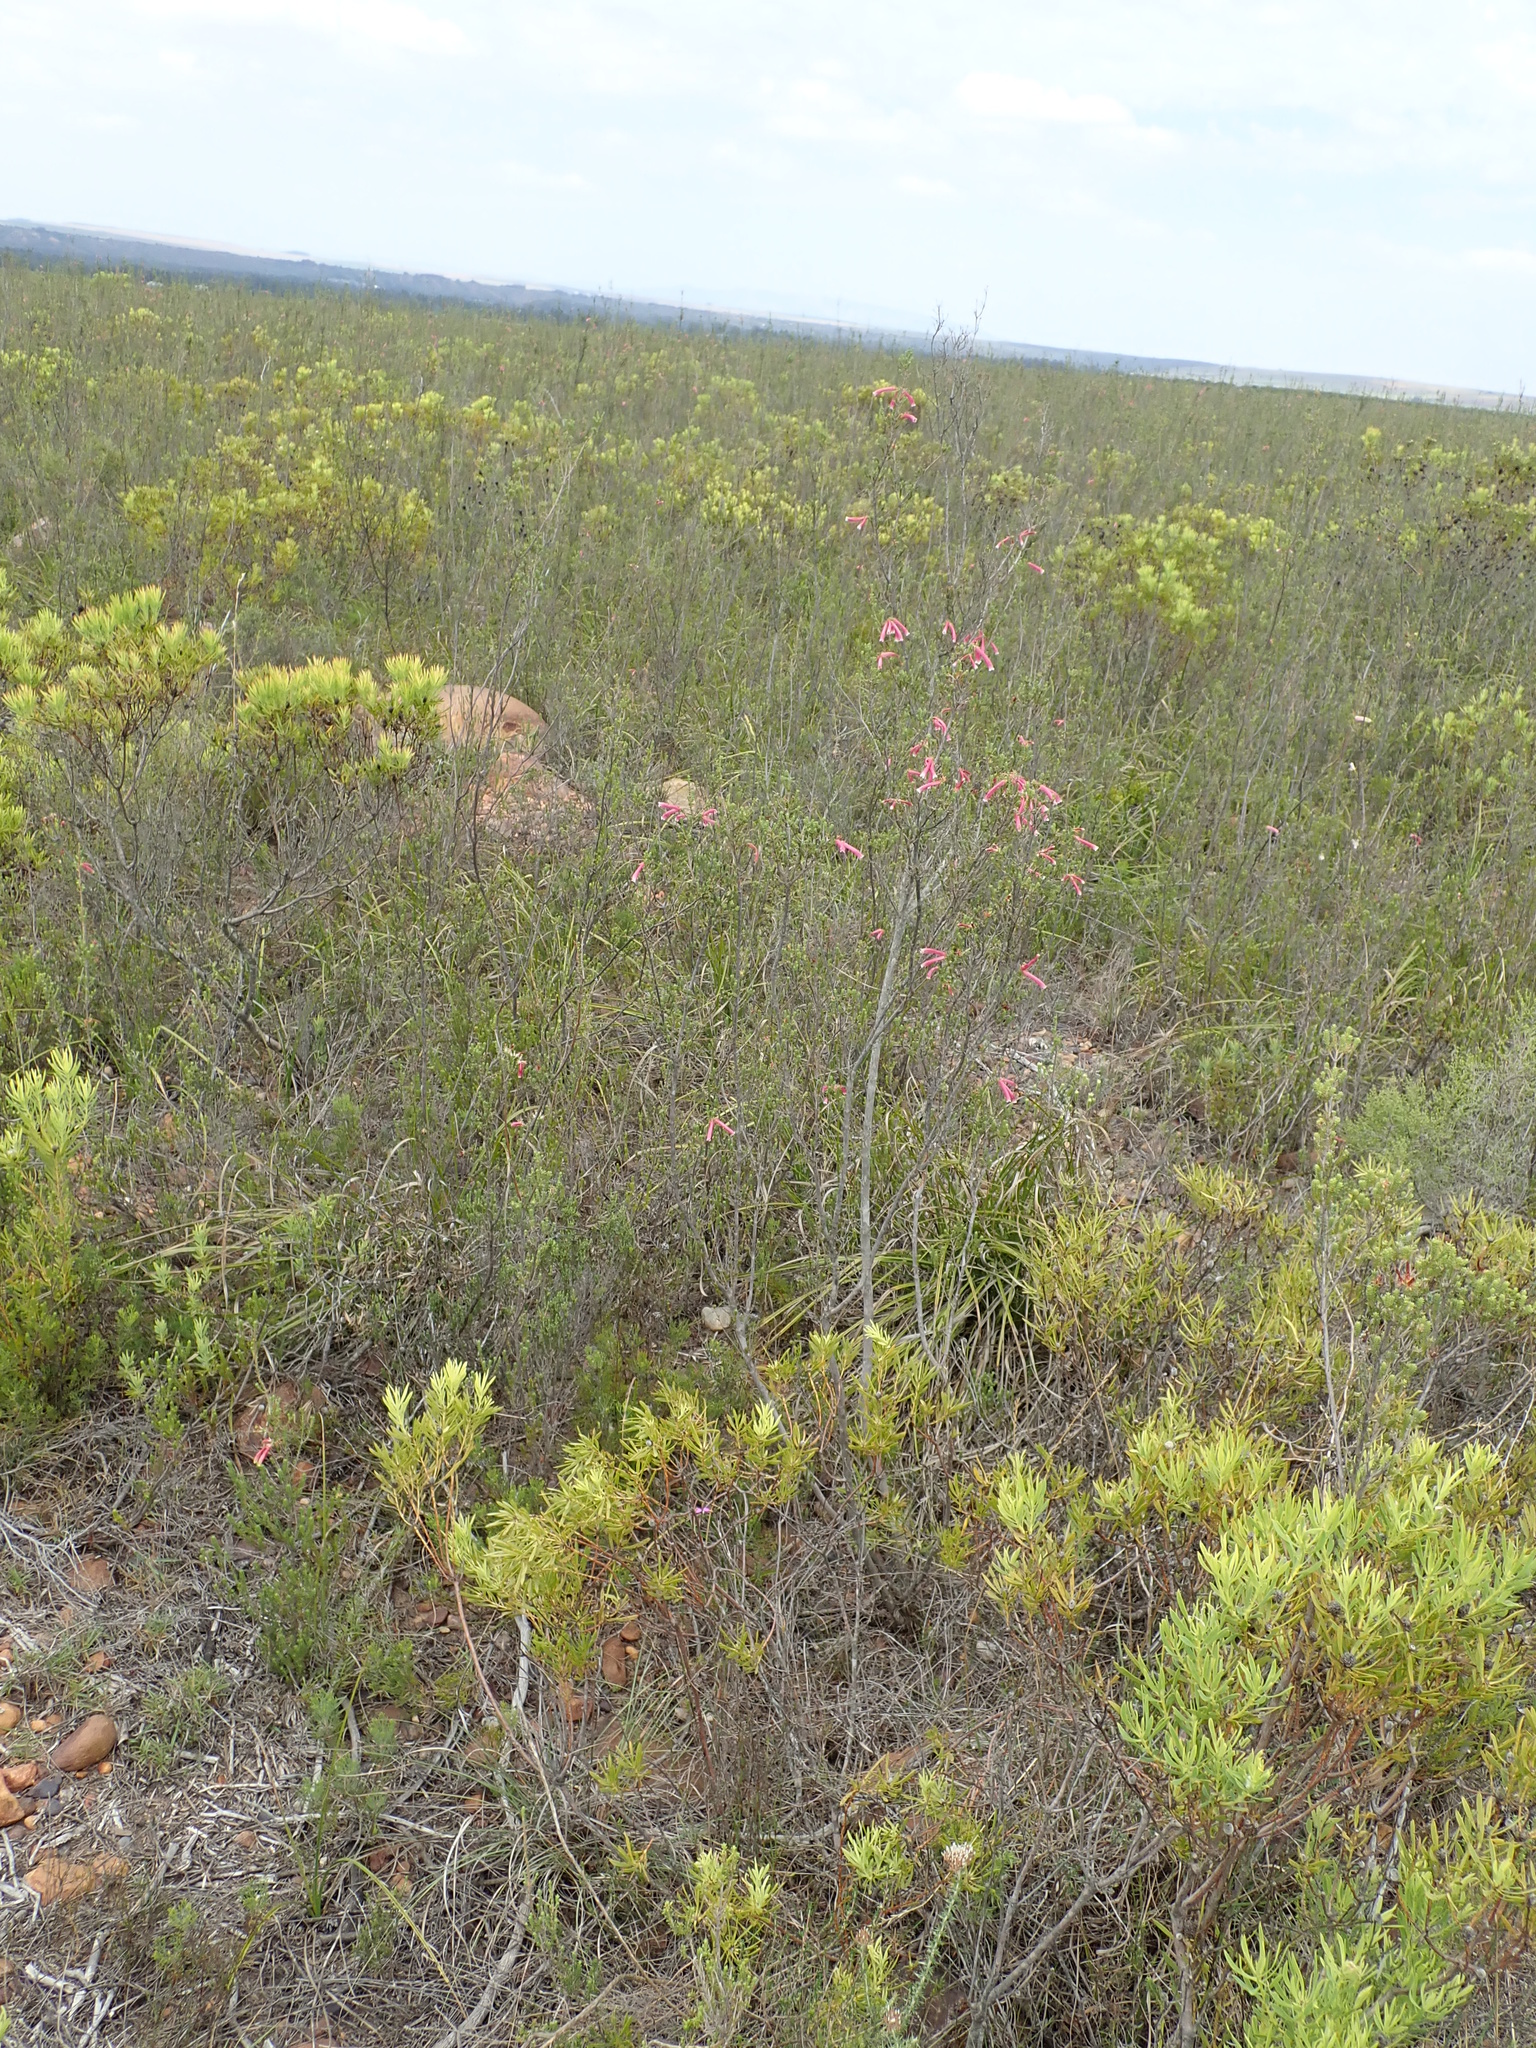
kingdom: Plantae
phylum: Tracheophyta
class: Magnoliopsida
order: Ericales
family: Ericaceae
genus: Erica
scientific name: Erica versicolor
